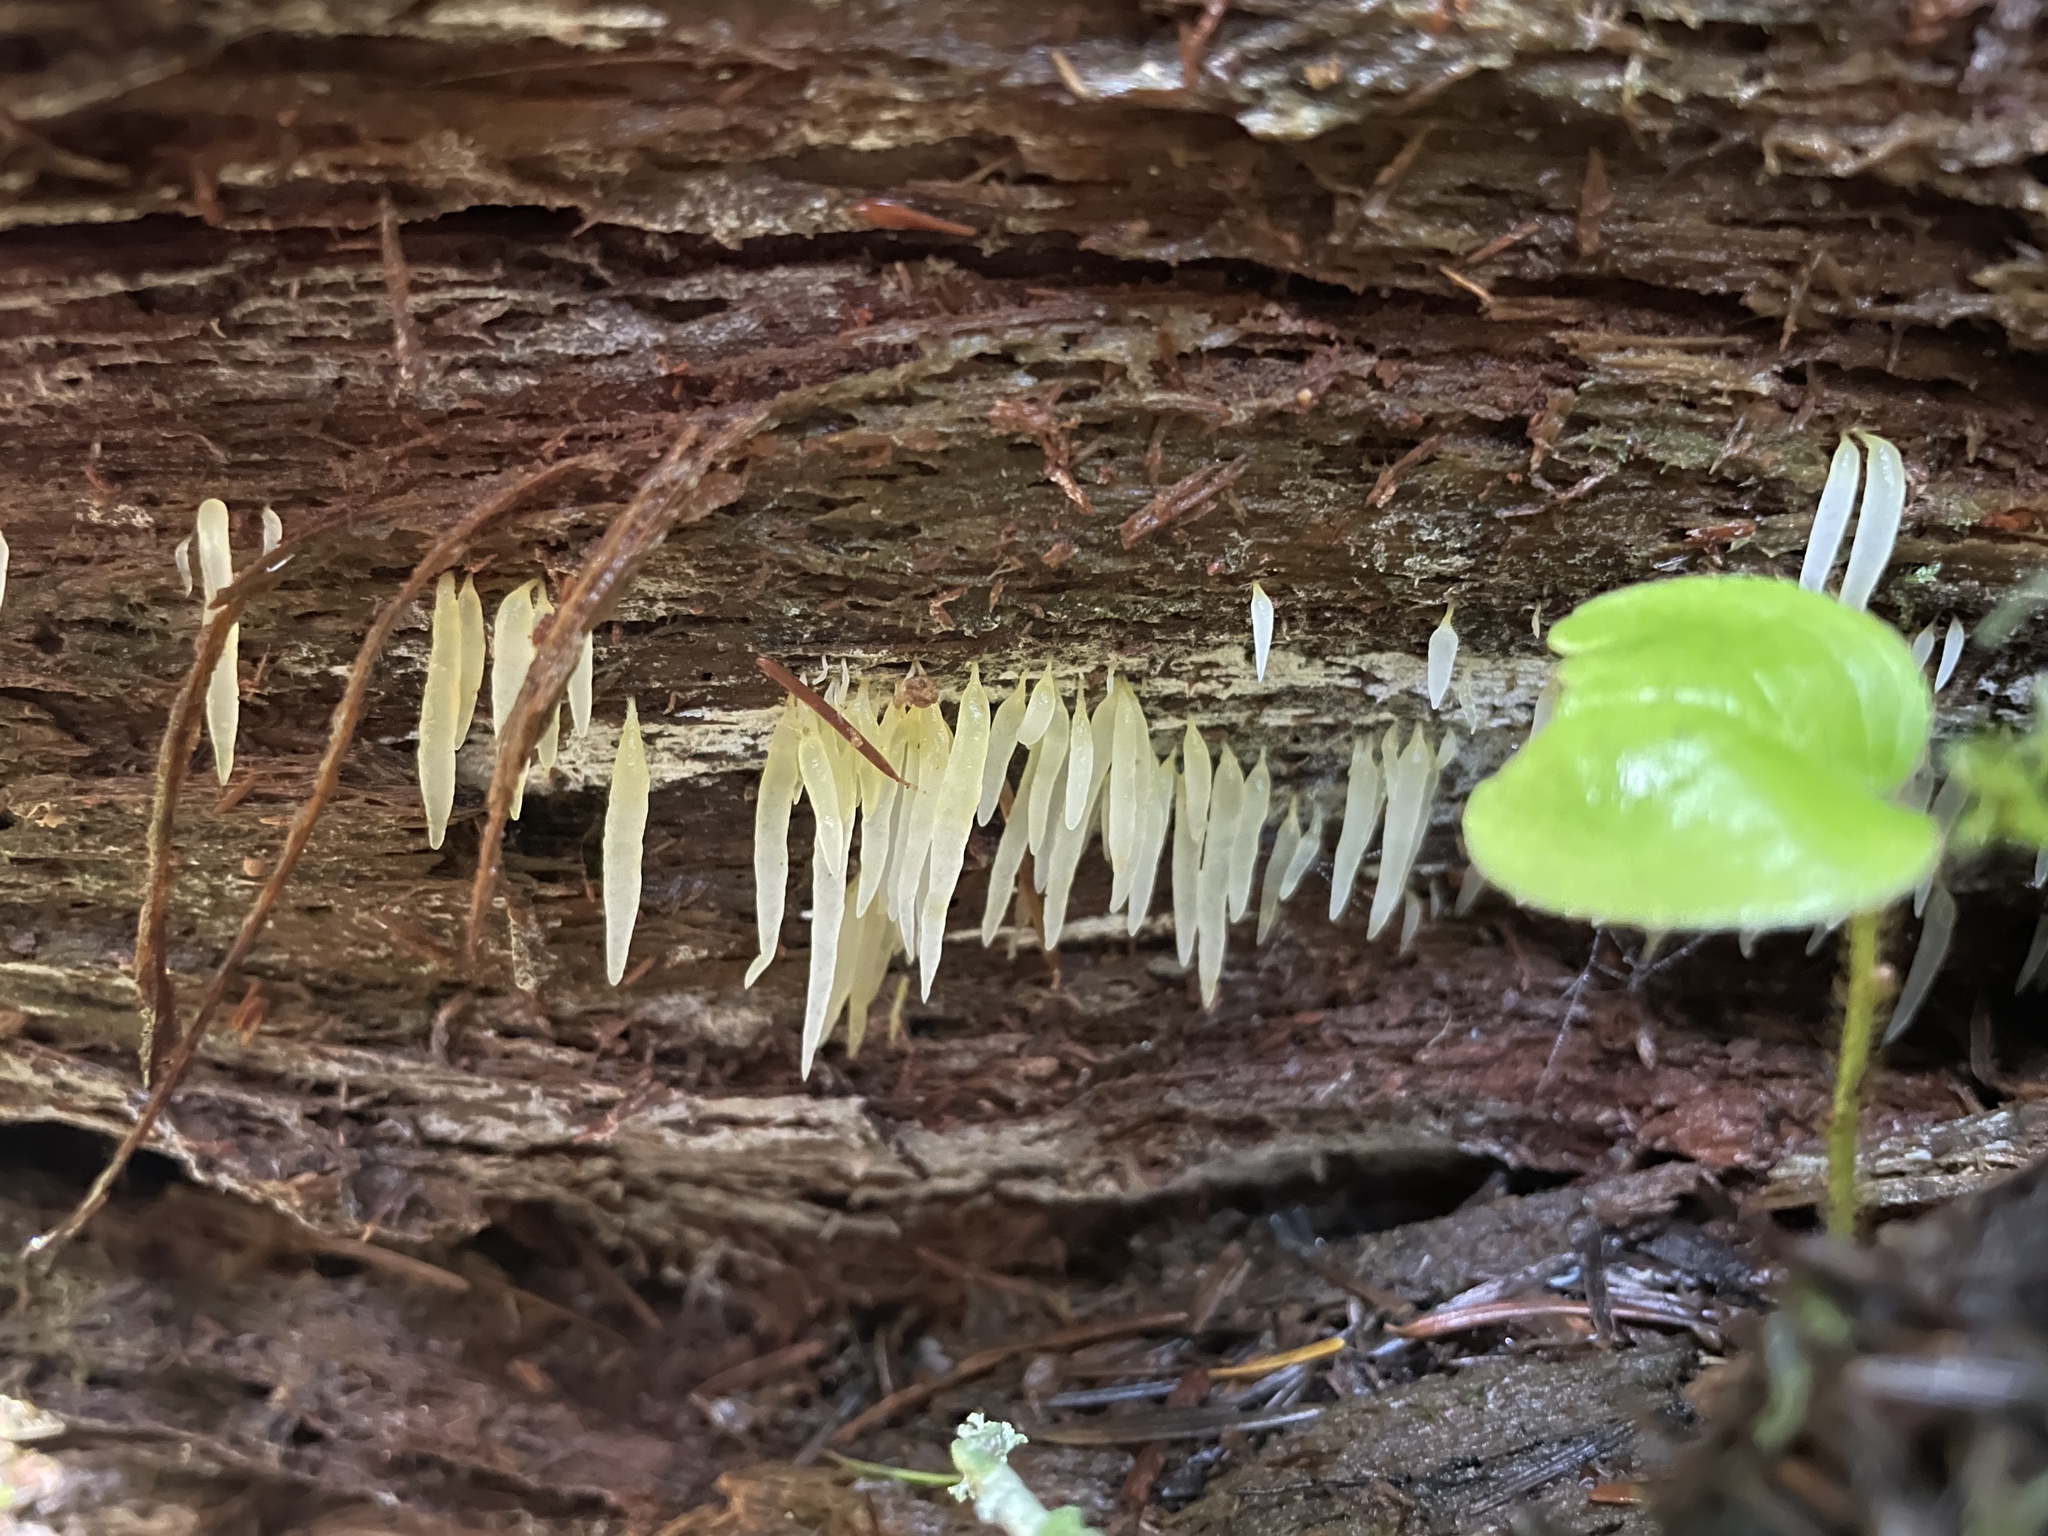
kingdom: Fungi
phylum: Basidiomycota
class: Agaricomycetes
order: Agaricales
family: Clavariaceae
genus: Mucronella
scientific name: Mucronella fusiformis
